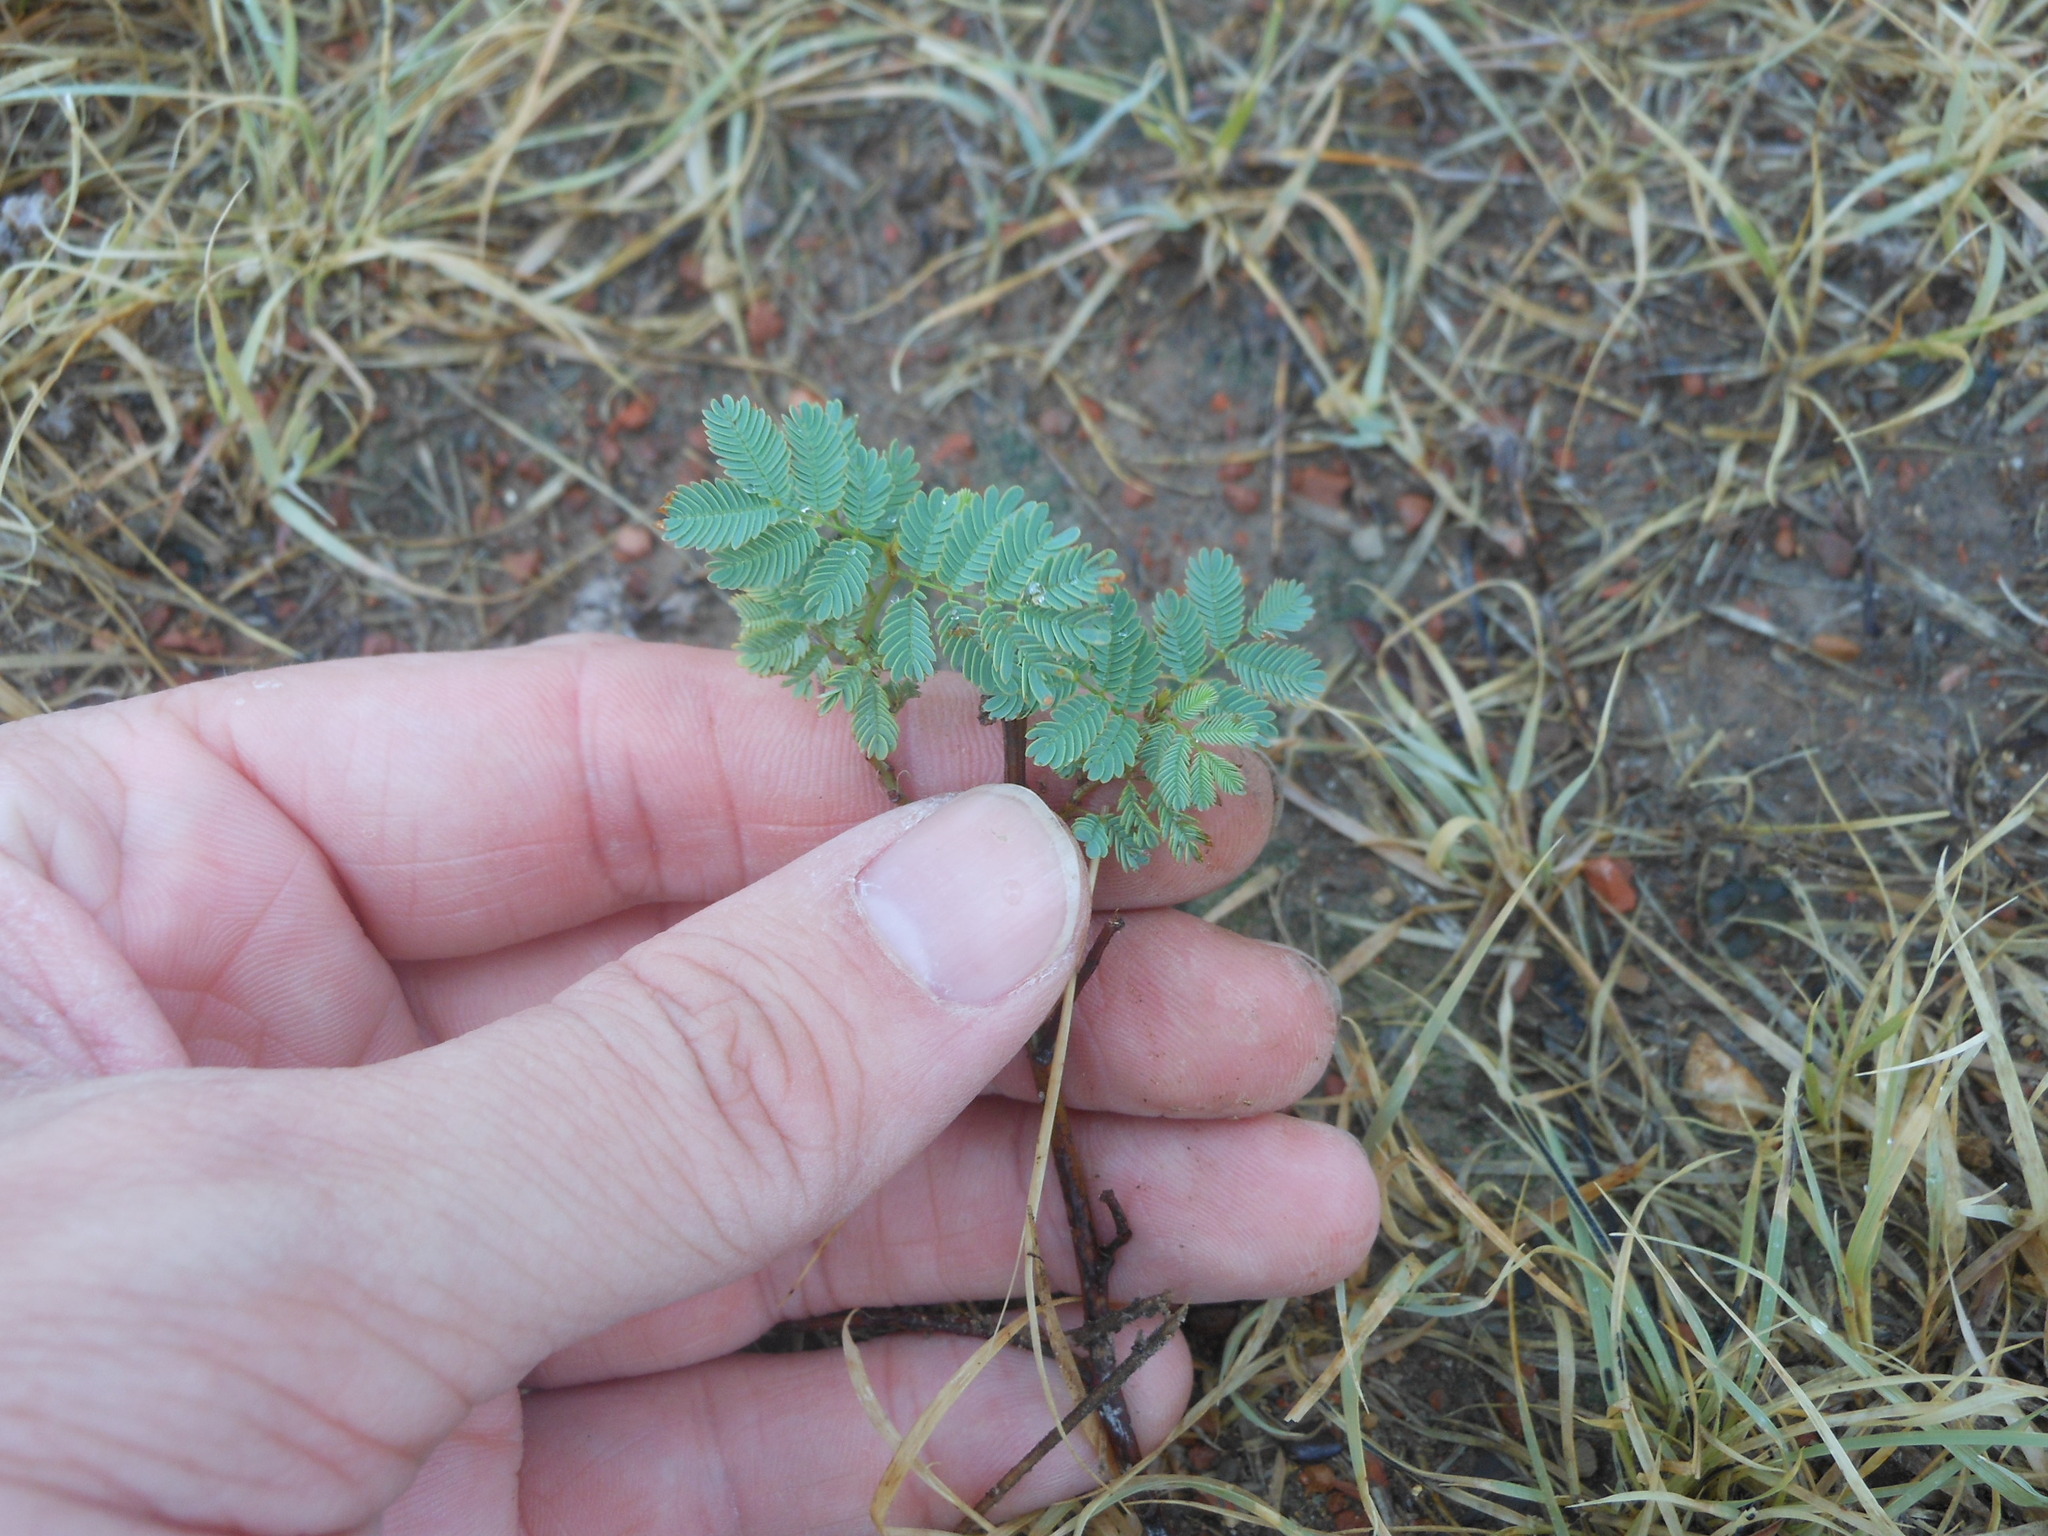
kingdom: Plantae
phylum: Tracheophyta
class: Magnoliopsida
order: Fabales
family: Fabaceae
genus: Mimosa
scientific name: Mimosa quadrivalvis
